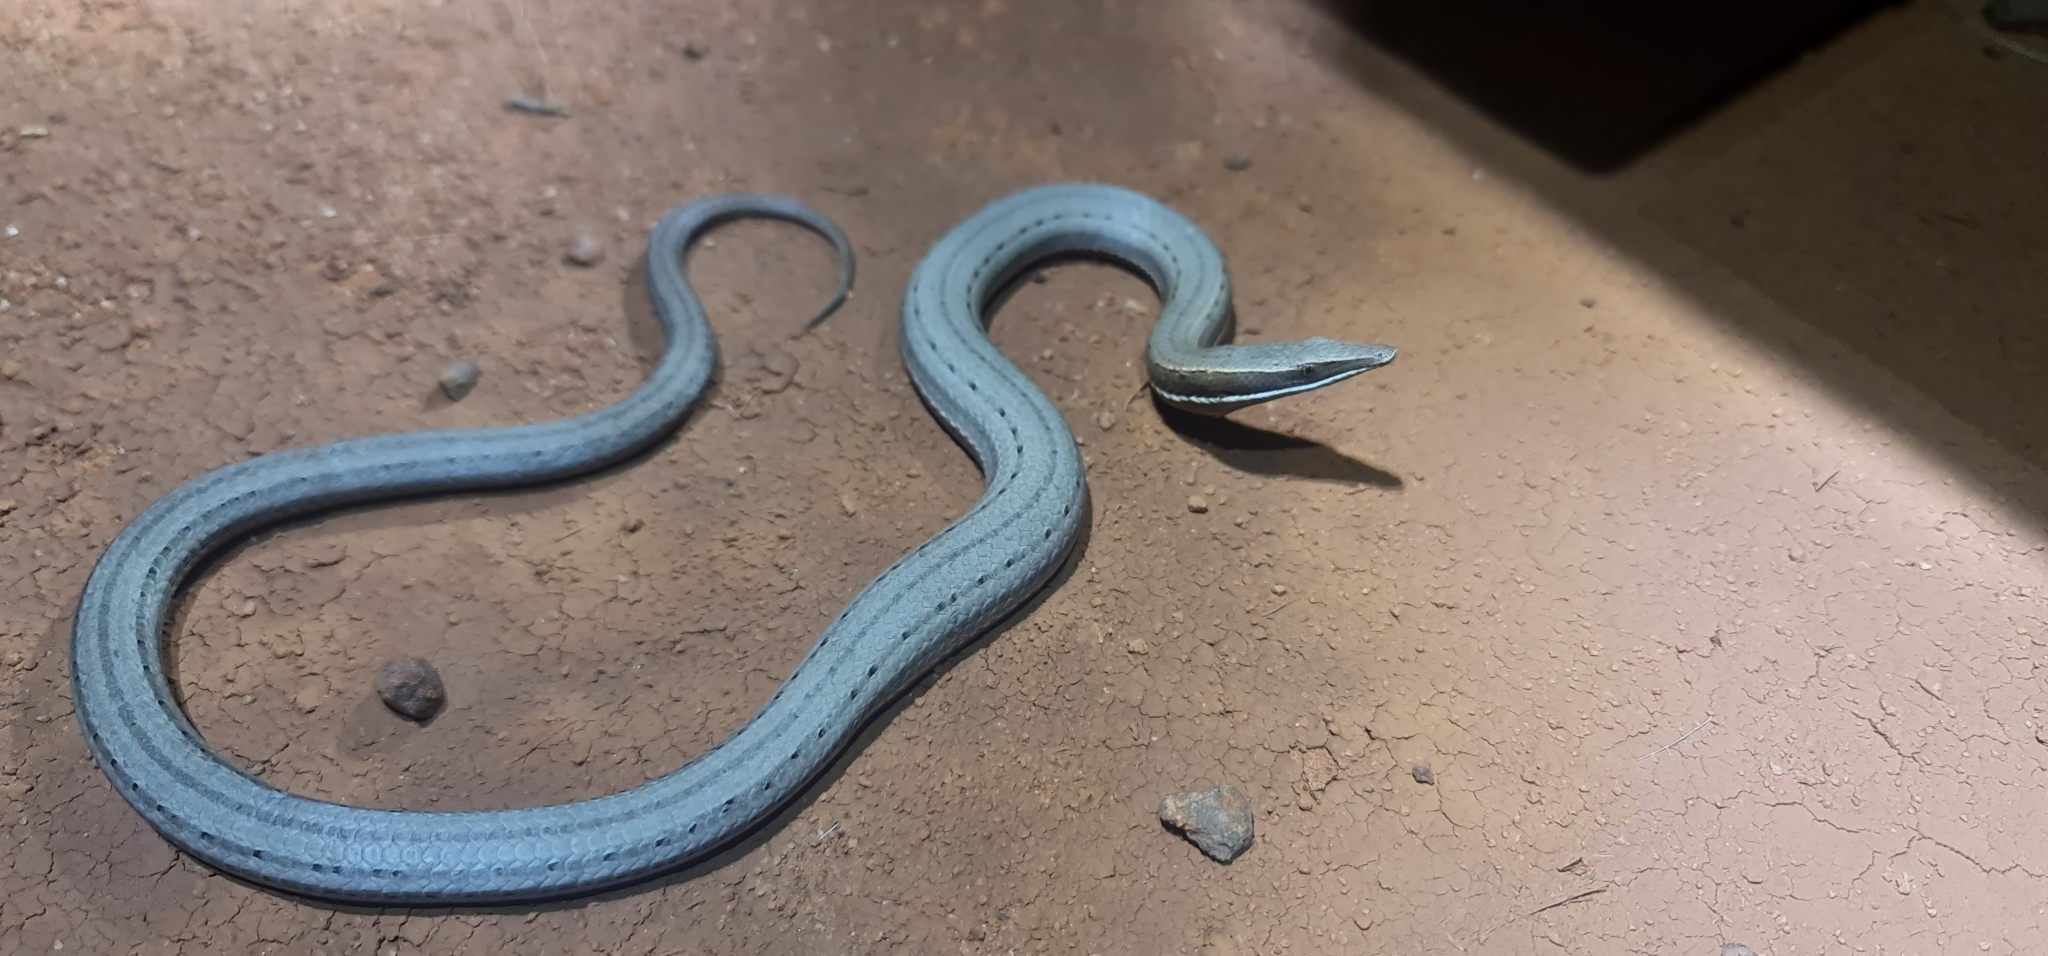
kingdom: Animalia
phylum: Chordata
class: Squamata
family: Pygopodidae
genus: Lialis
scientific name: Lialis burtonis
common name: Burton's legless lizard
